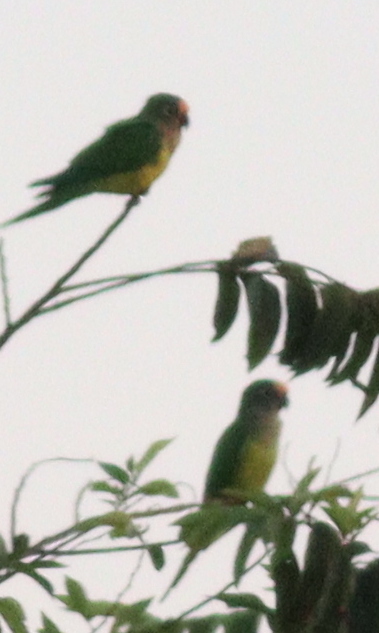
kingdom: Animalia
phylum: Chordata
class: Aves
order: Psittaciformes
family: Psittacidae
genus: Aratinga
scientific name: Aratinga aurea
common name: Peach-fronted parakeet
